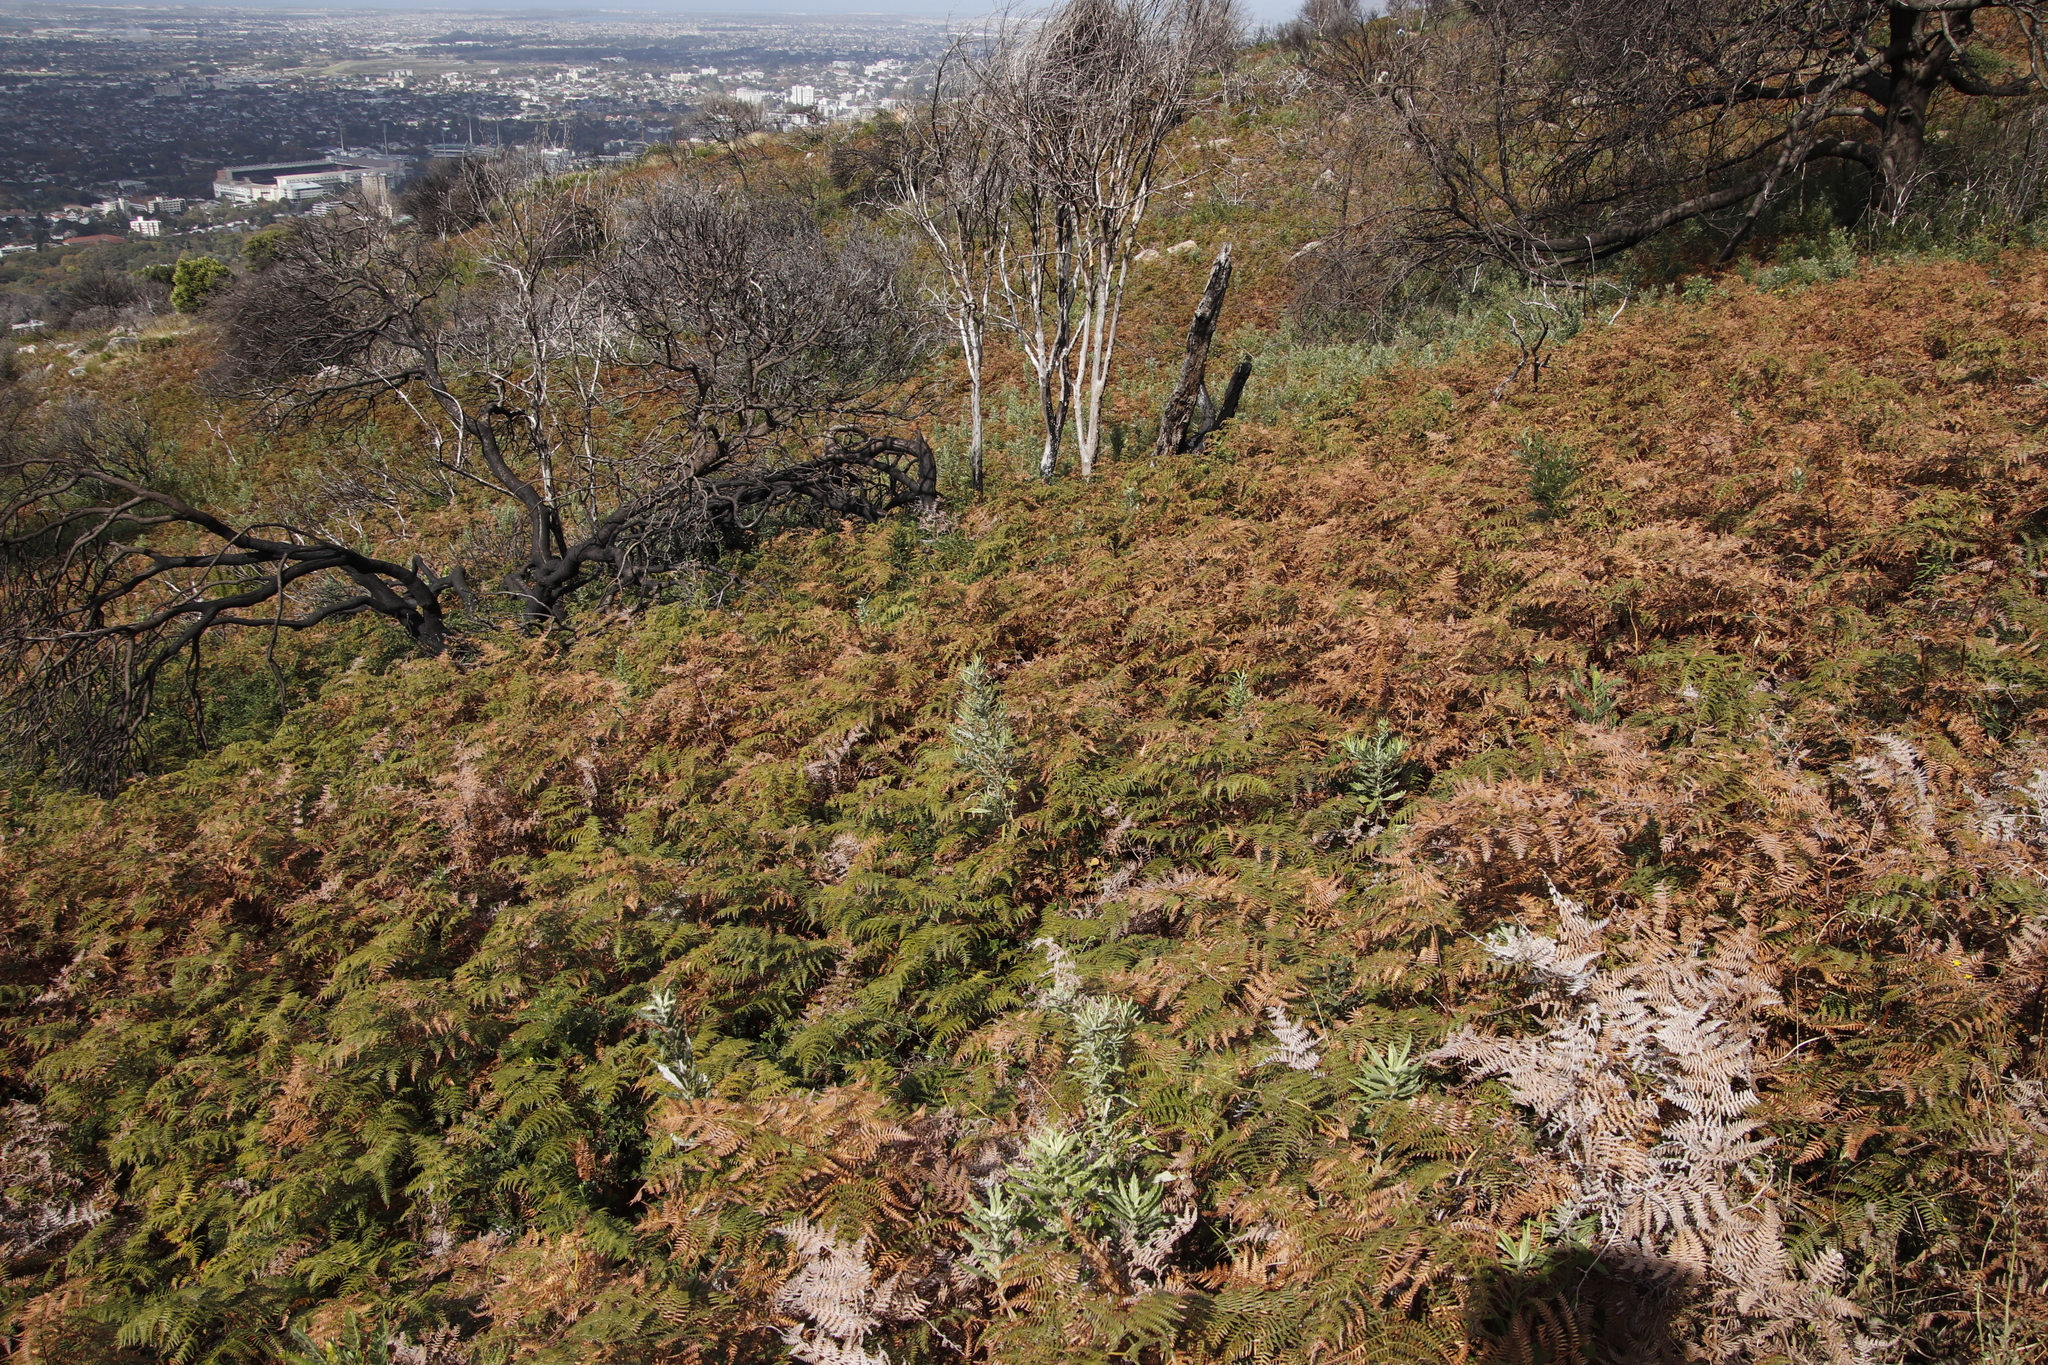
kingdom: Plantae
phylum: Tracheophyta
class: Polypodiopsida
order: Polypodiales
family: Dennstaedtiaceae
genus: Pteridium
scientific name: Pteridium aquilinum
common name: Bracken
